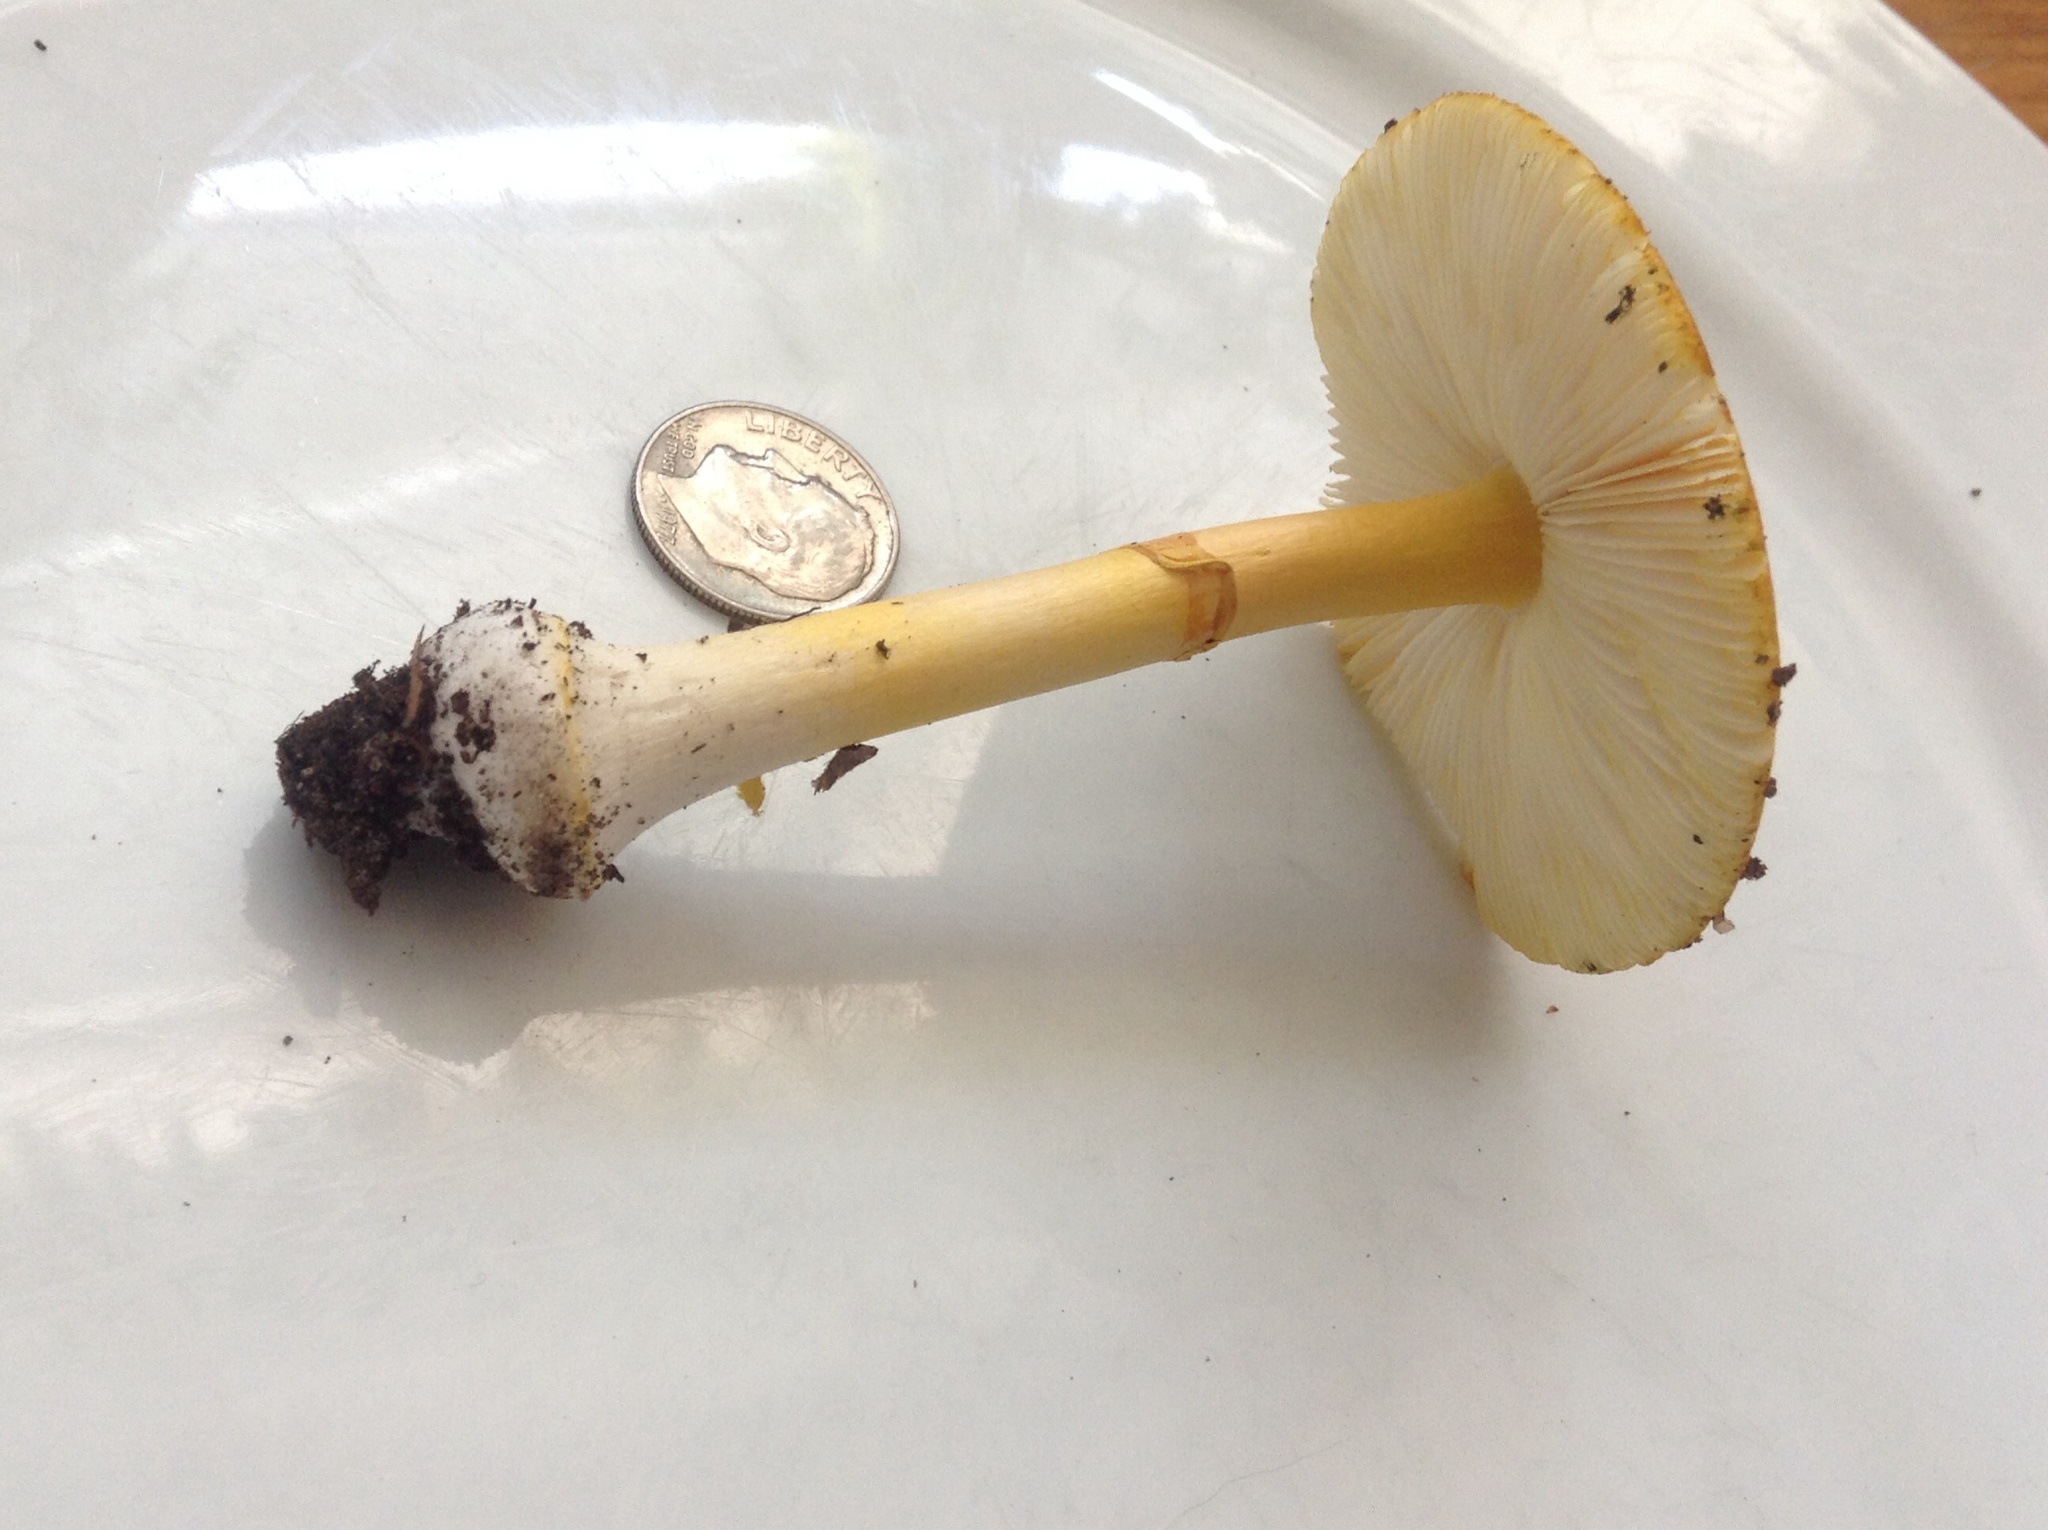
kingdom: Fungi
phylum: Basidiomycota
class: Agaricomycetes
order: Agaricales
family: Amanitaceae
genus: Amanita
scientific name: Amanita flavoconia
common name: Yellow patches
